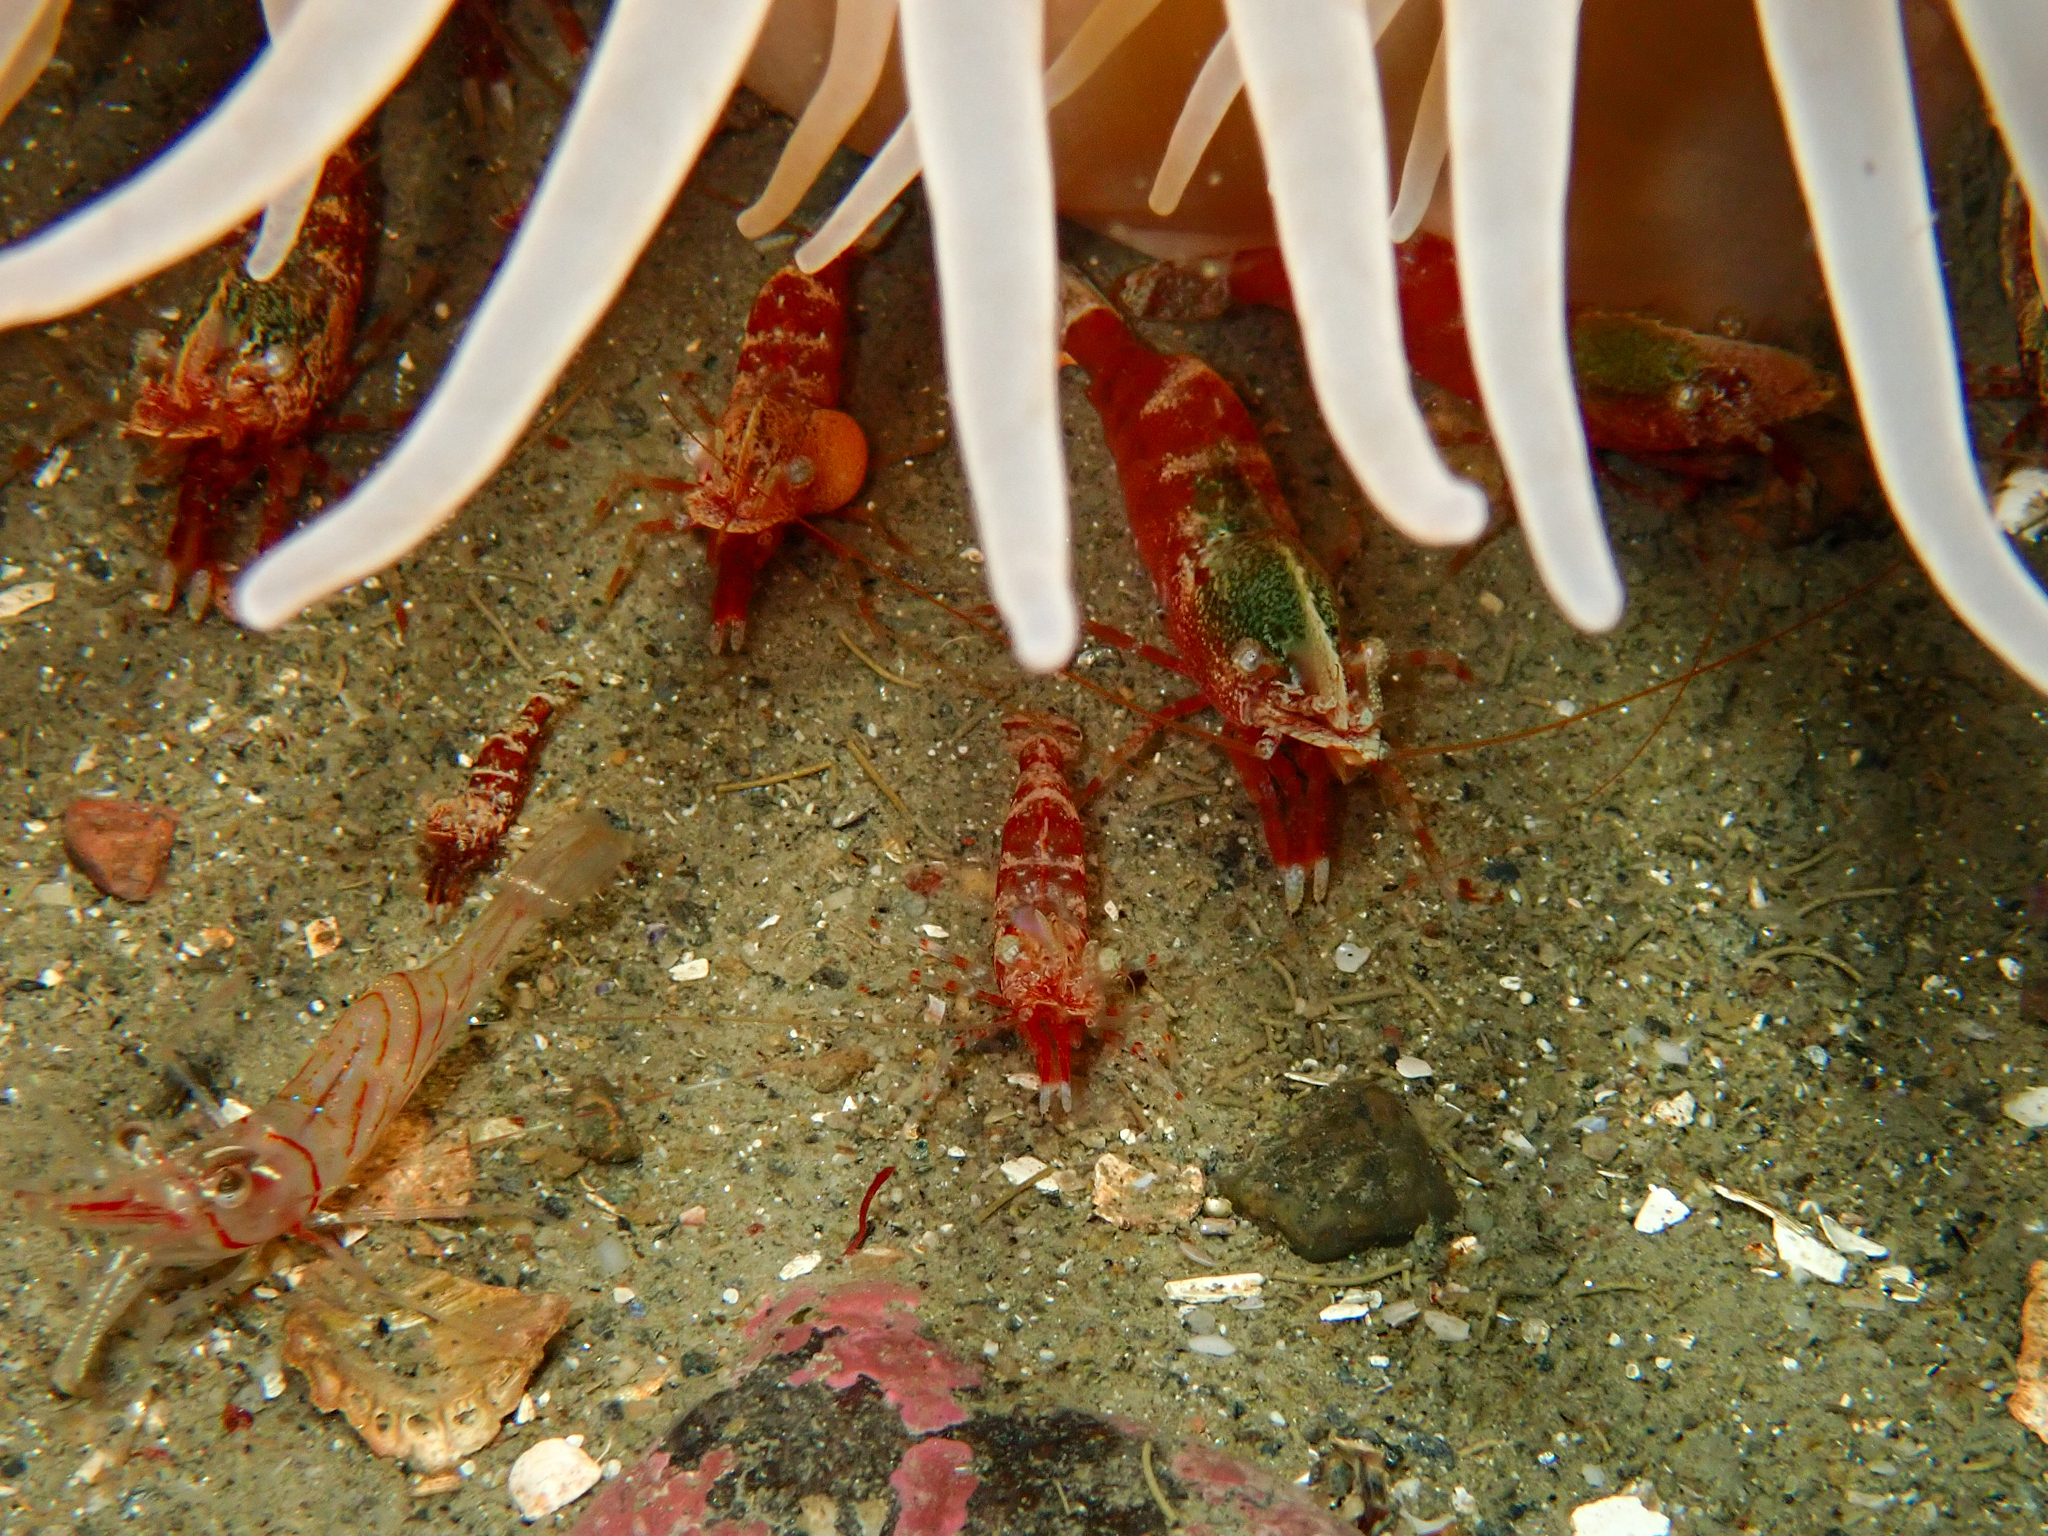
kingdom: Animalia
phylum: Arthropoda
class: Malacostraca
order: Decapoda
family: Thoridae
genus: Spirontocaris
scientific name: Spirontocaris lilljeborgii
